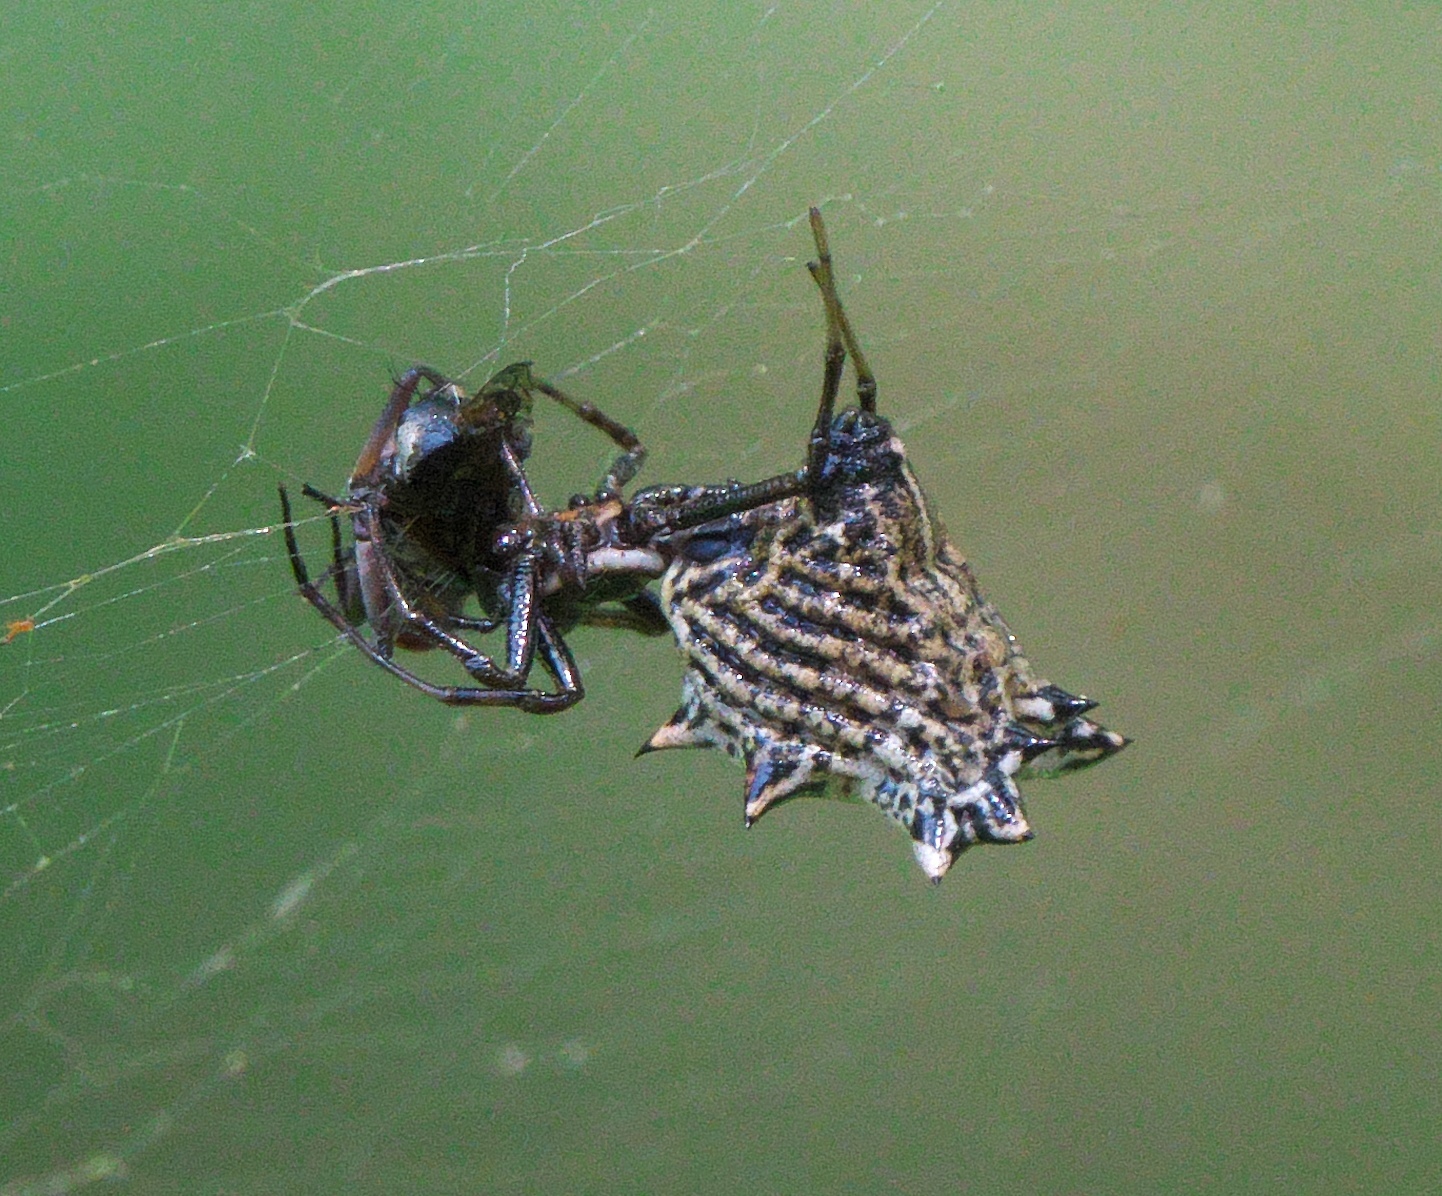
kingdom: Animalia
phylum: Arthropoda
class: Arachnida
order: Araneae
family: Araneidae
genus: Micrathena
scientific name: Micrathena gracilis
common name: Orb weavers
